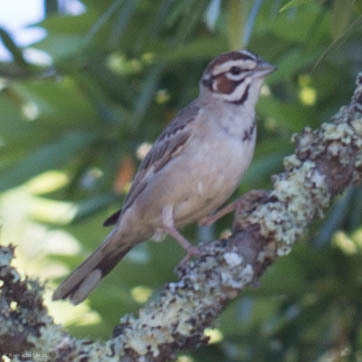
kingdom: Animalia
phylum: Chordata
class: Aves
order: Passeriformes
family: Passerellidae
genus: Chondestes
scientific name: Chondestes grammacus
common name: Lark sparrow
